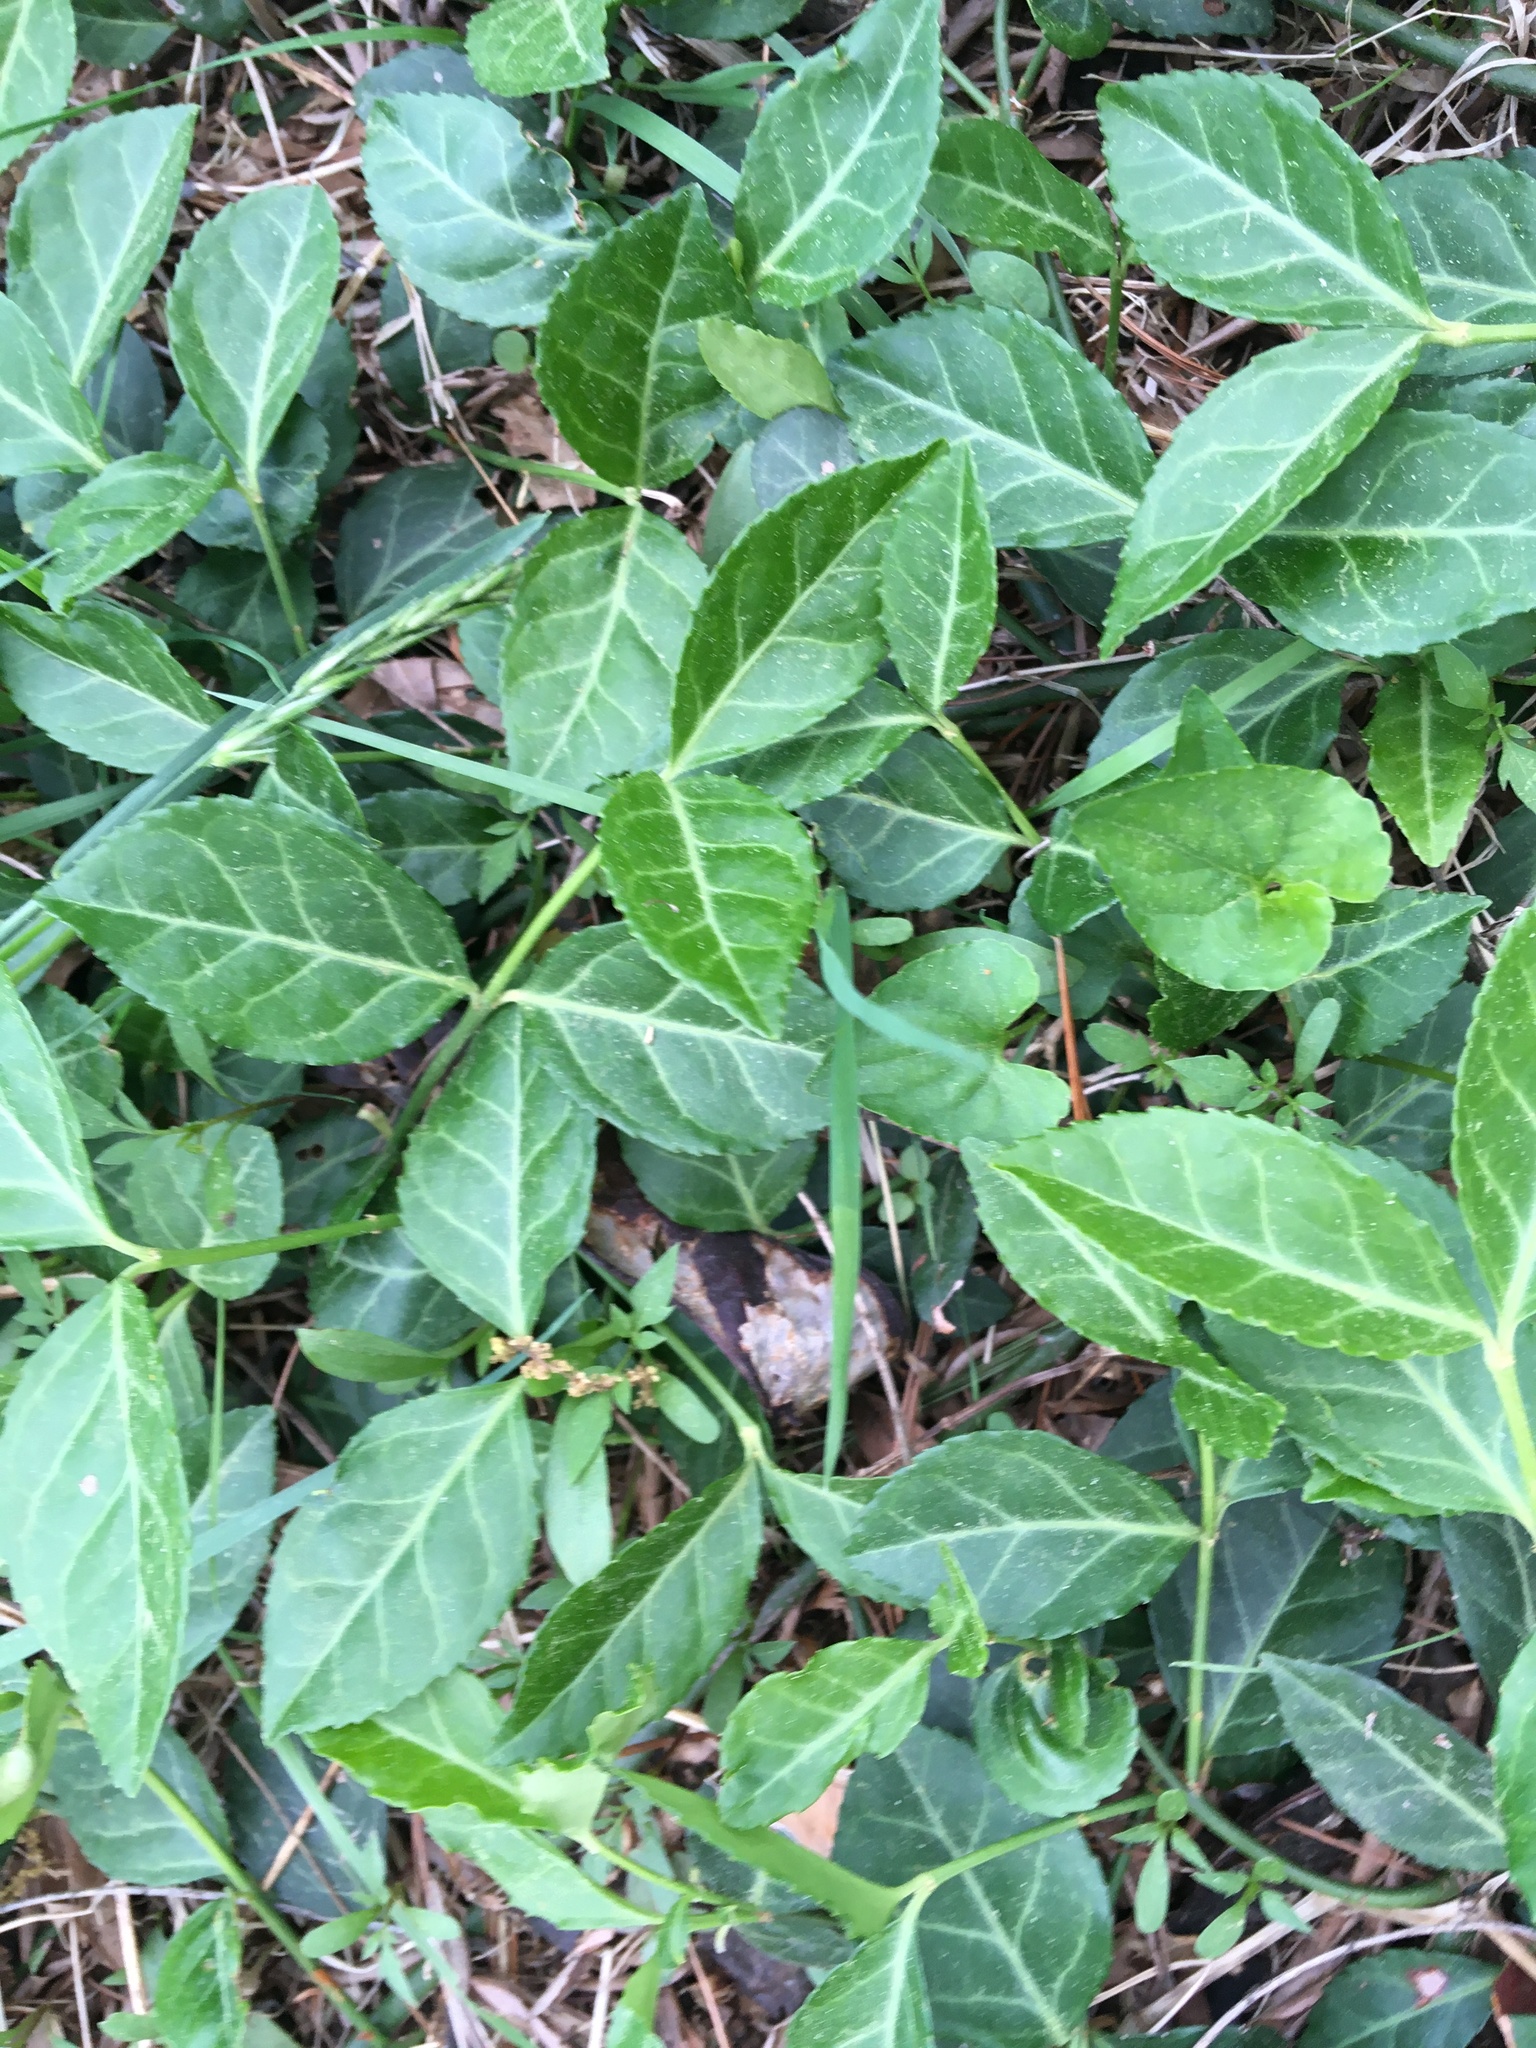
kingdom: Plantae
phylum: Tracheophyta
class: Magnoliopsida
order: Celastrales
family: Celastraceae
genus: Euonymus
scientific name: Euonymus fortunei
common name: Climbing euonymus
